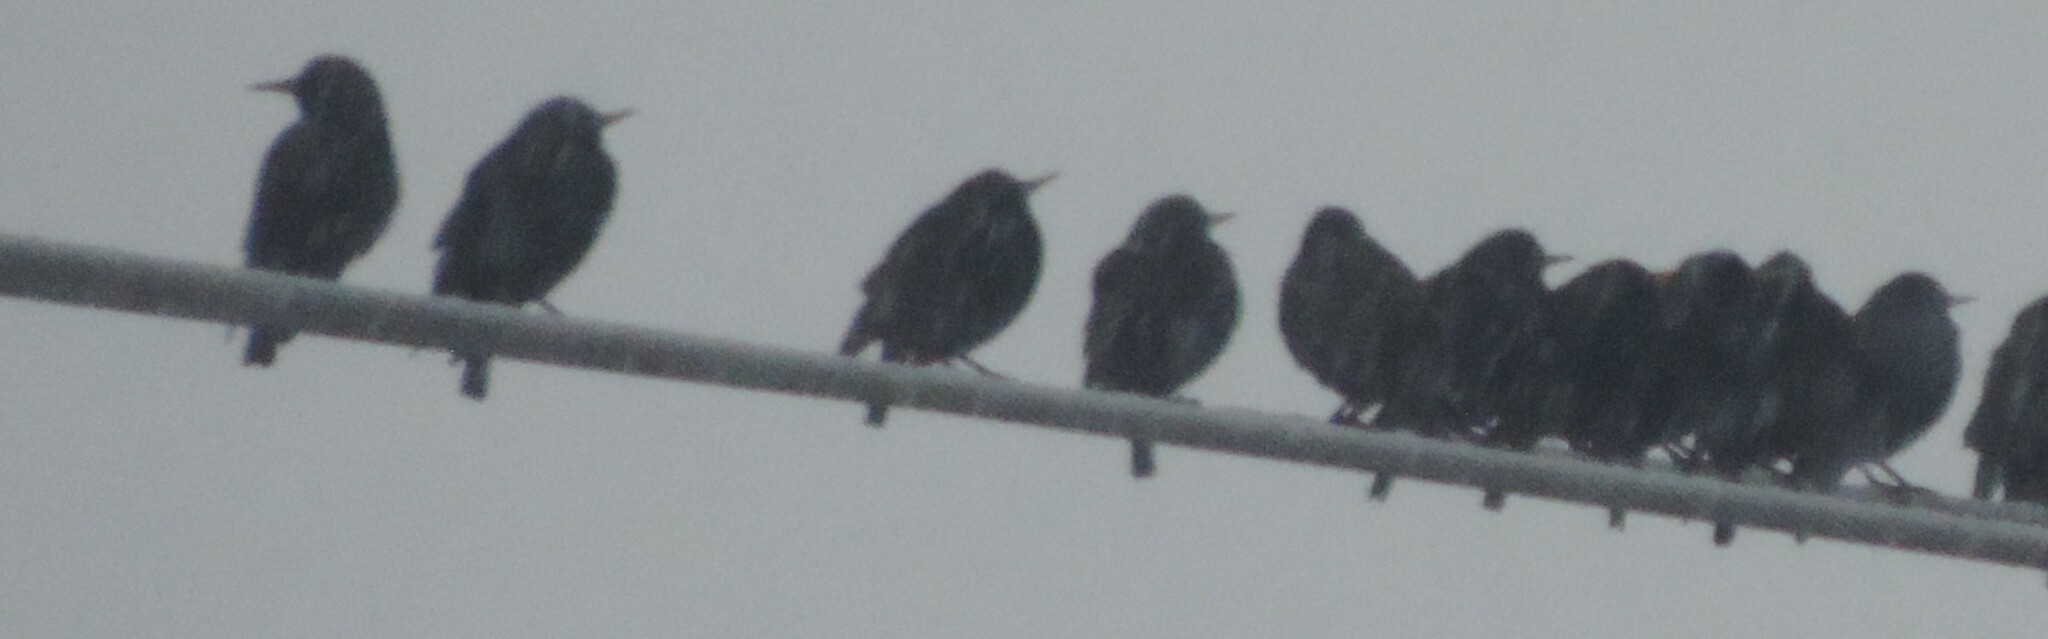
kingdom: Animalia
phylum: Chordata
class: Aves
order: Passeriformes
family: Sturnidae
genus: Sturnus
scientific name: Sturnus vulgaris
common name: Common starling
